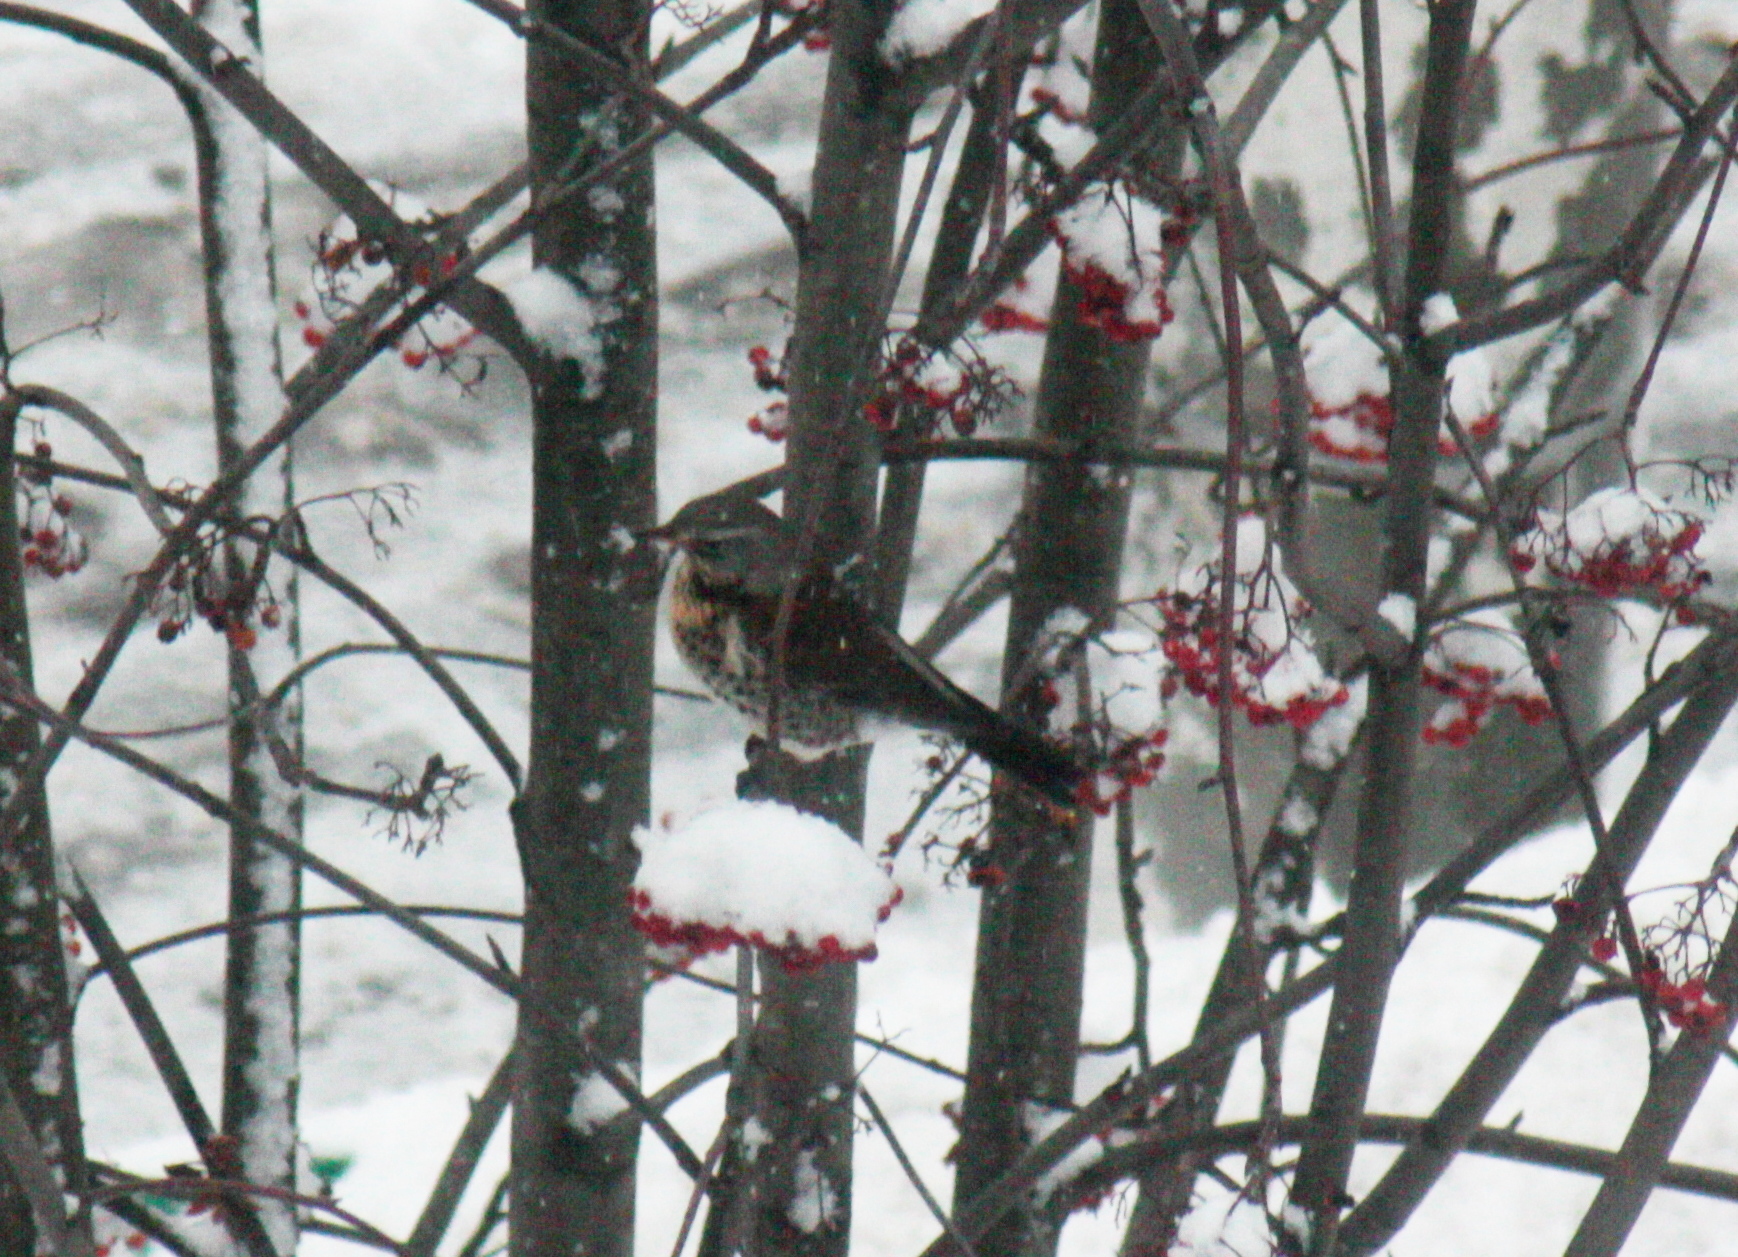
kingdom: Animalia
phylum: Chordata
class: Aves
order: Passeriformes
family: Turdidae
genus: Turdus
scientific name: Turdus pilaris
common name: Fieldfare
